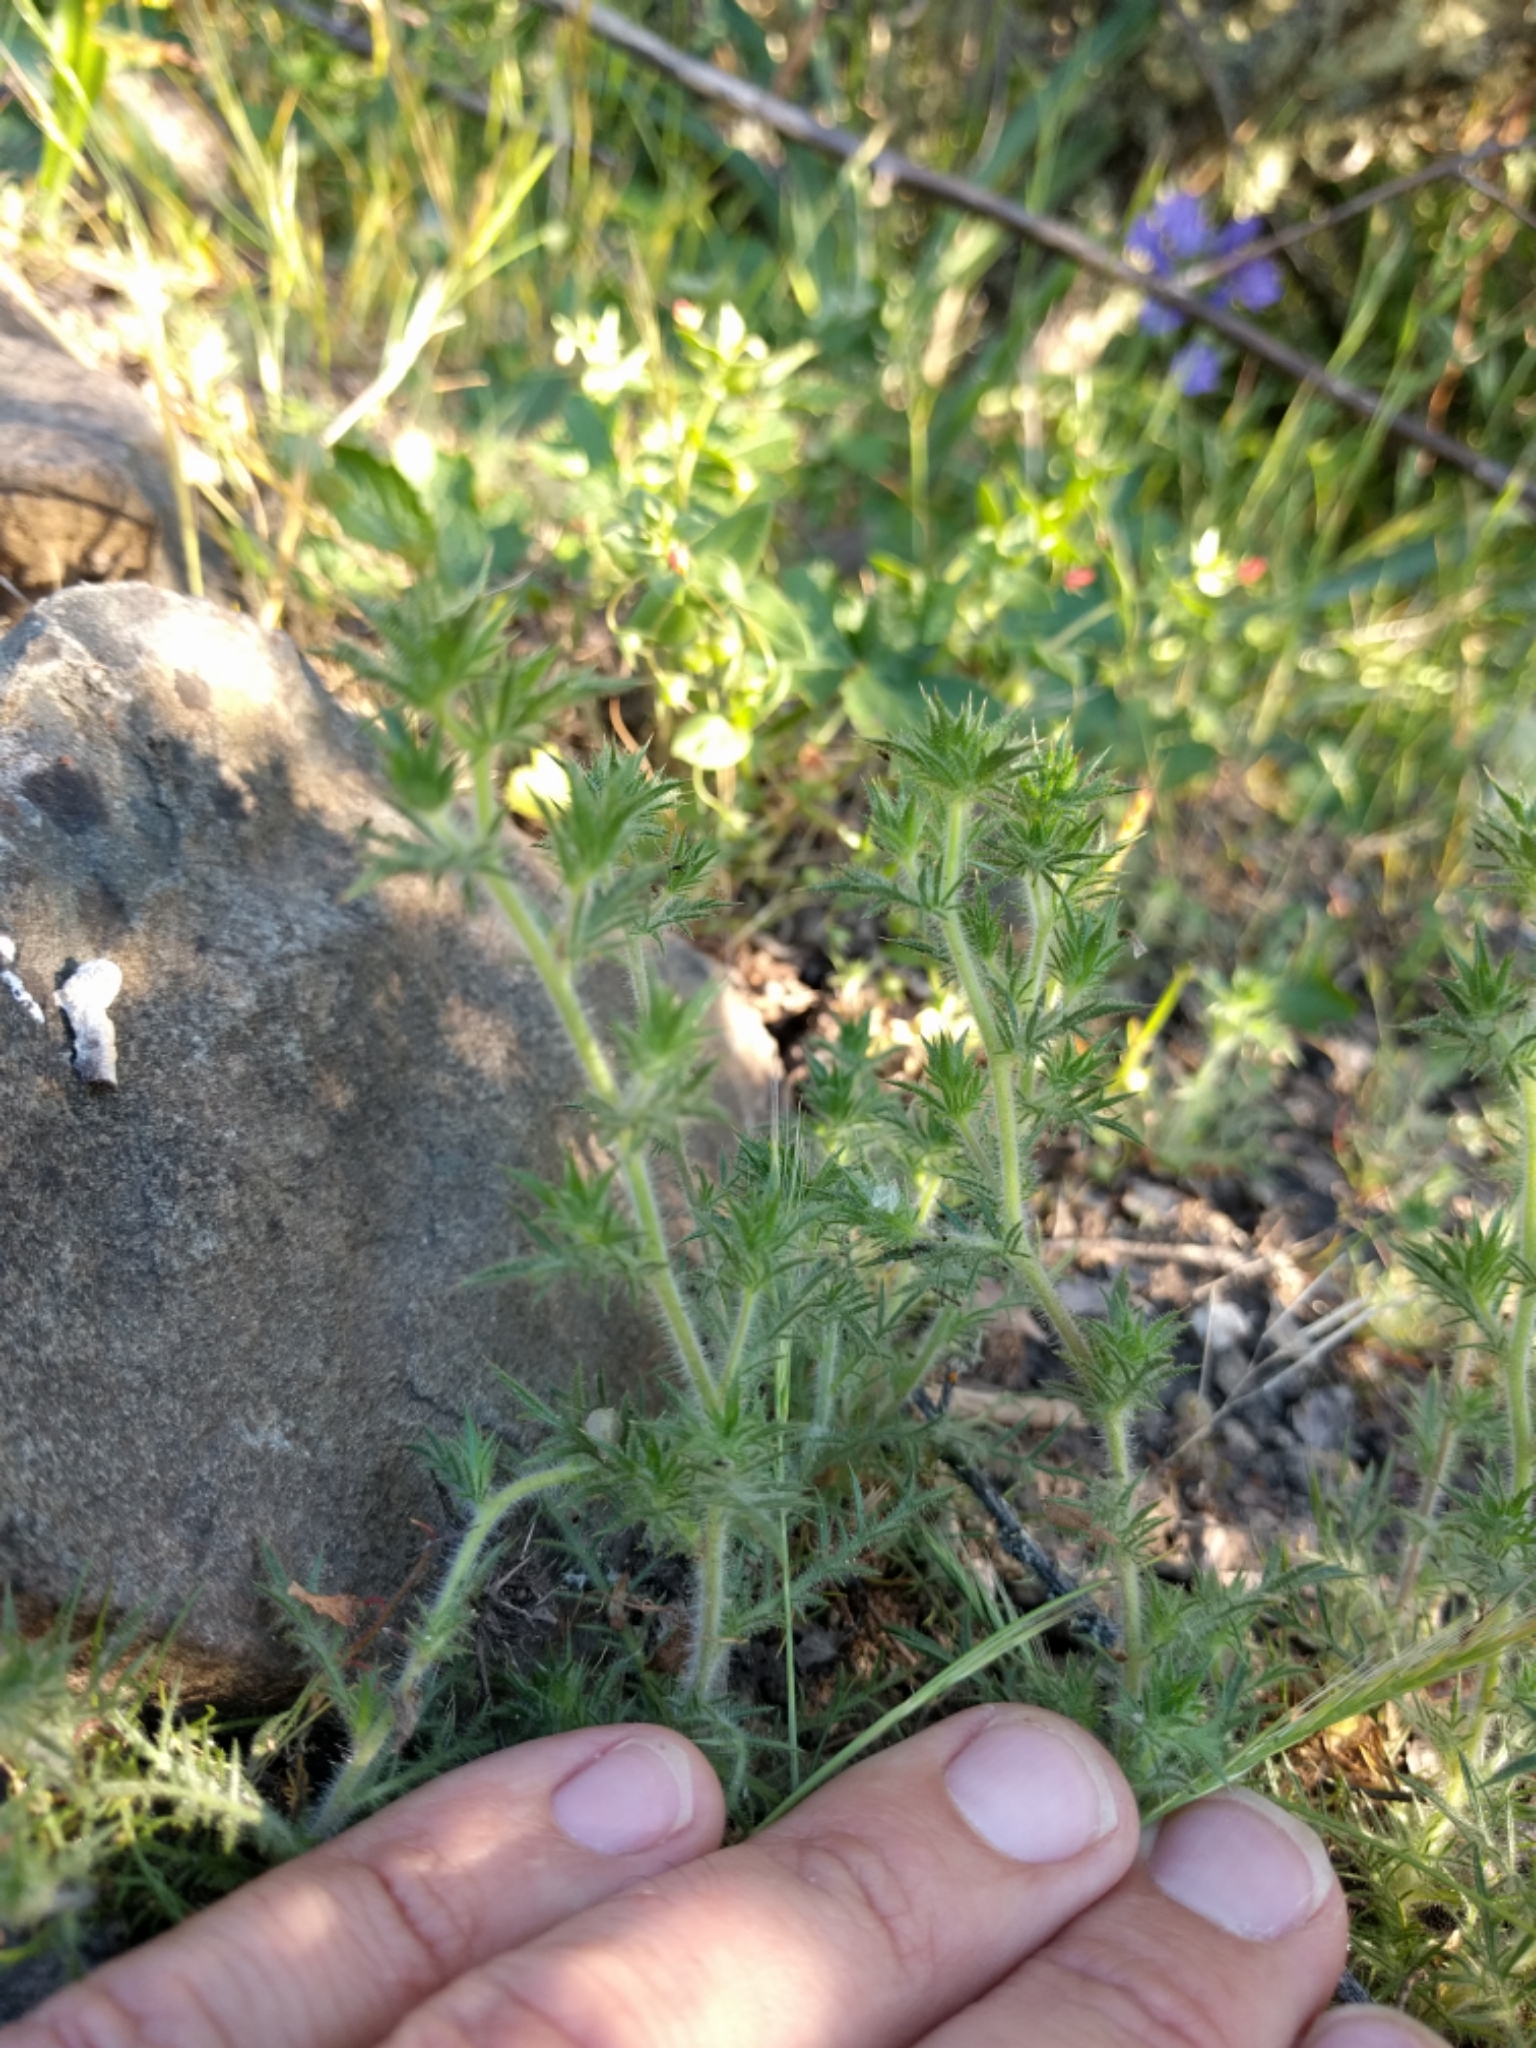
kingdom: Plantae
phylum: Tracheophyta
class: Magnoliopsida
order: Ericales
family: Polemoniaceae
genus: Navarretia
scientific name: Navarretia squarrosa
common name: Skunkweed
